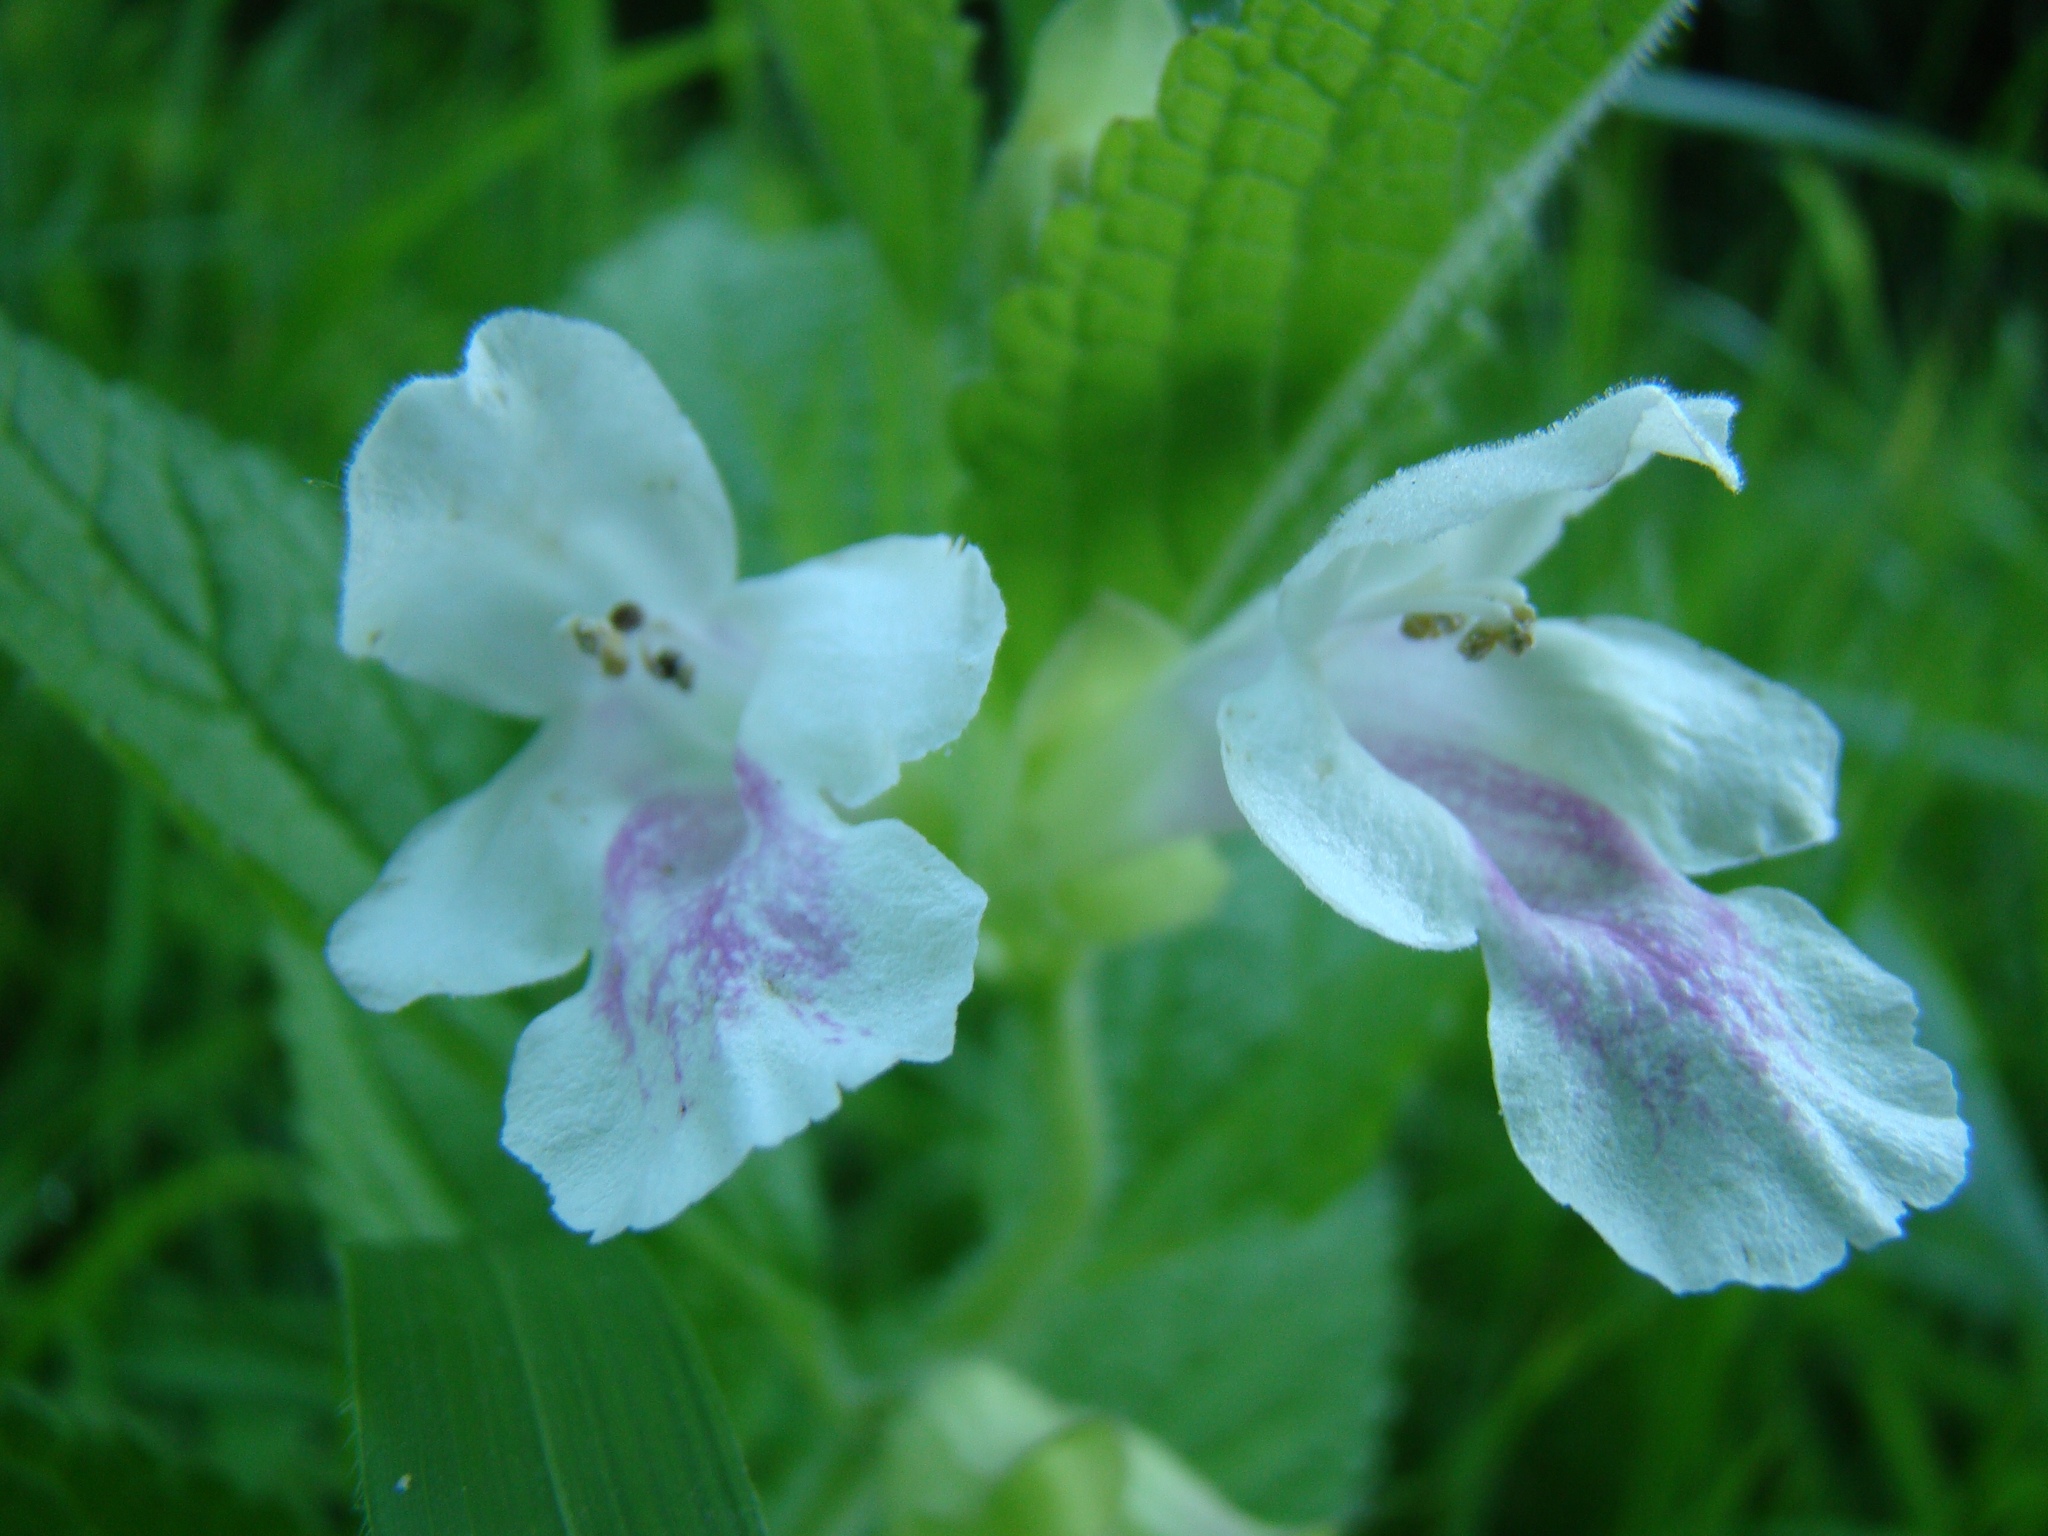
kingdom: Plantae
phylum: Tracheophyta
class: Magnoliopsida
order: Lamiales
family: Lamiaceae
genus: Melittis
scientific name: Melittis melissophyllum
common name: Bastard balm
